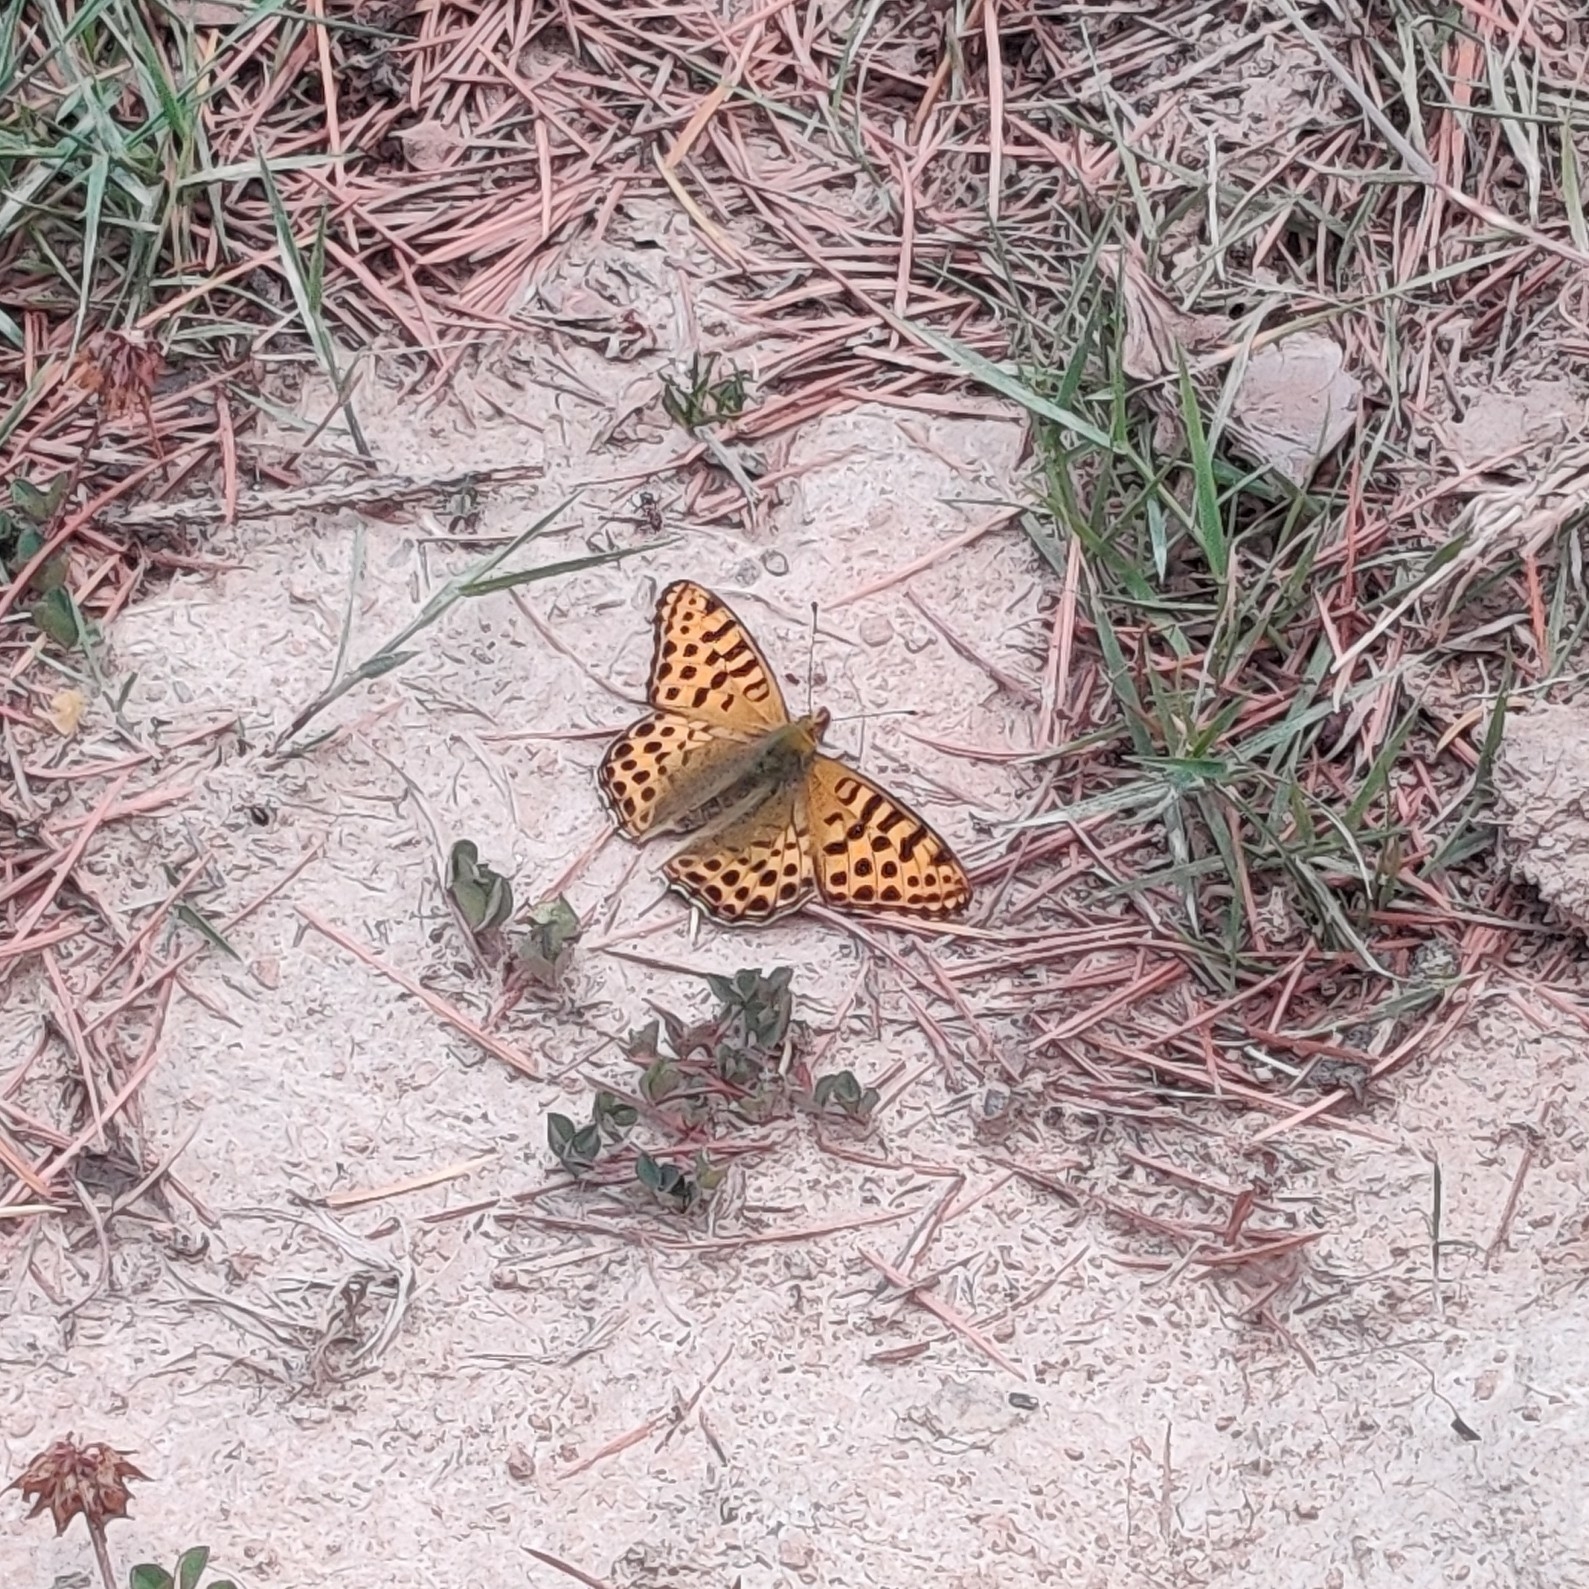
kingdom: Animalia
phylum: Arthropoda
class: Insecta
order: Lepidoptera
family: Nymphalidae
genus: Issoria
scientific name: Issoria
